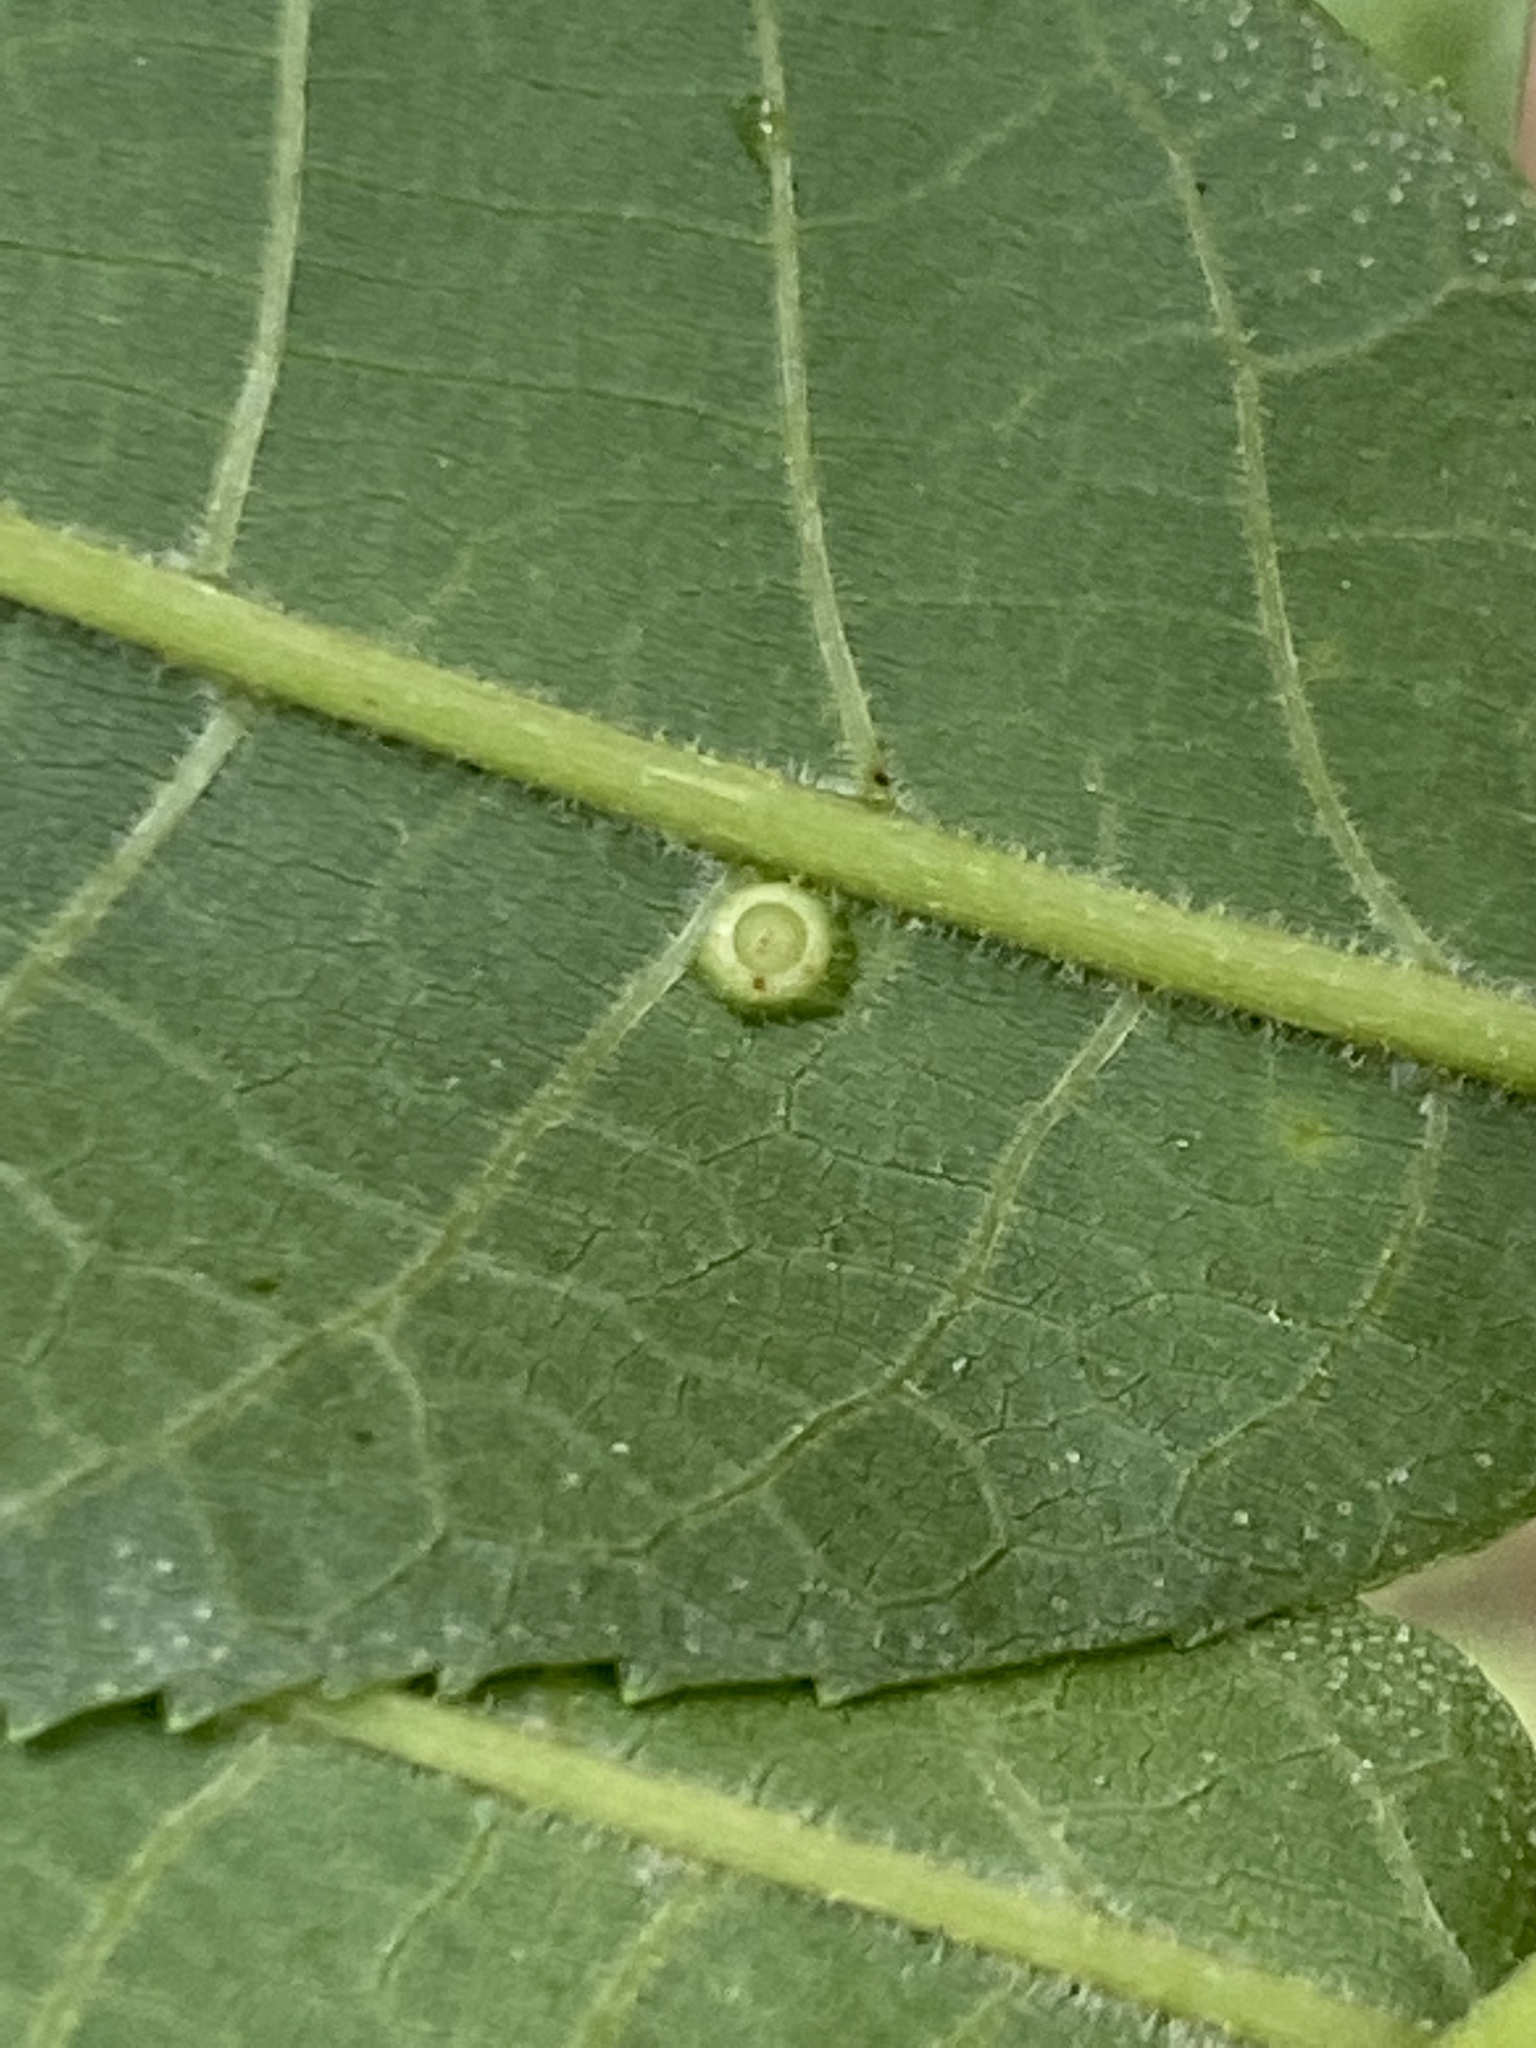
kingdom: Animalia
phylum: Arthropoda
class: Insecta
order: Diptera
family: Cecidomyiidae
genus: Caryomyia
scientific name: Caryomyia tubicola
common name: Hickory bullet gall midge
